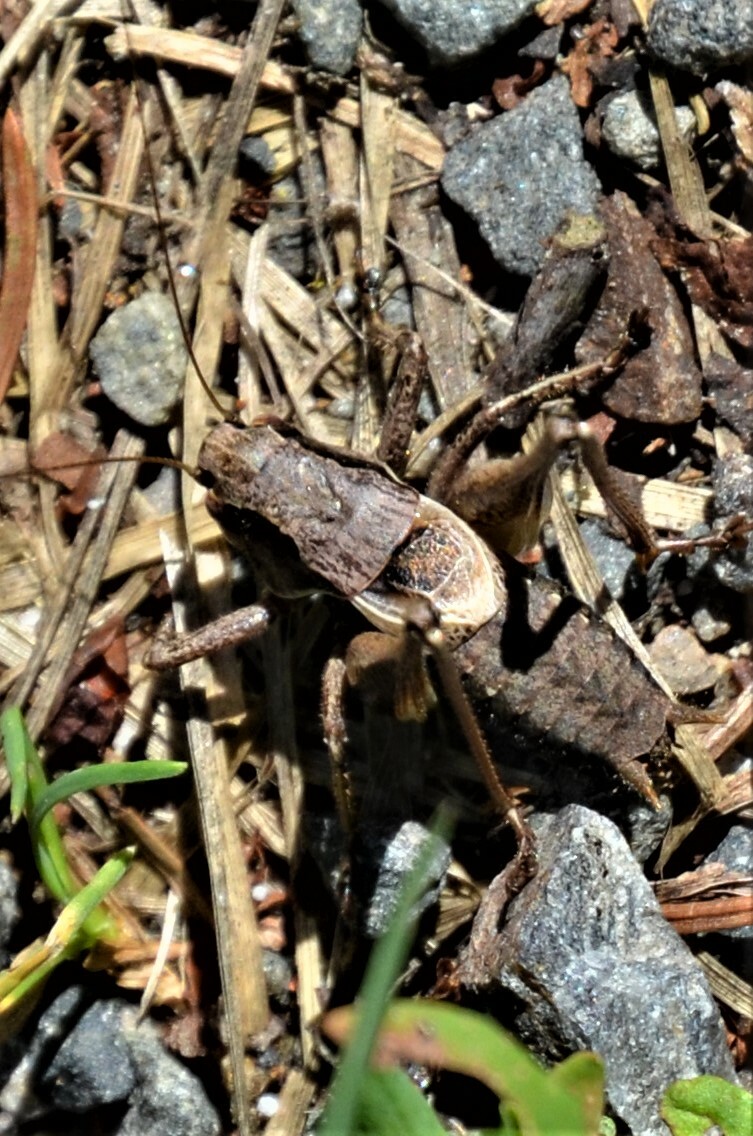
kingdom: Animalia
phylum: Arthropoda
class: Insecta
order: Orthoptera
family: Tettigoniidae
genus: Pholidoptera
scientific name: Pholidoptera griseoaptera
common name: Dark bush-cricket
